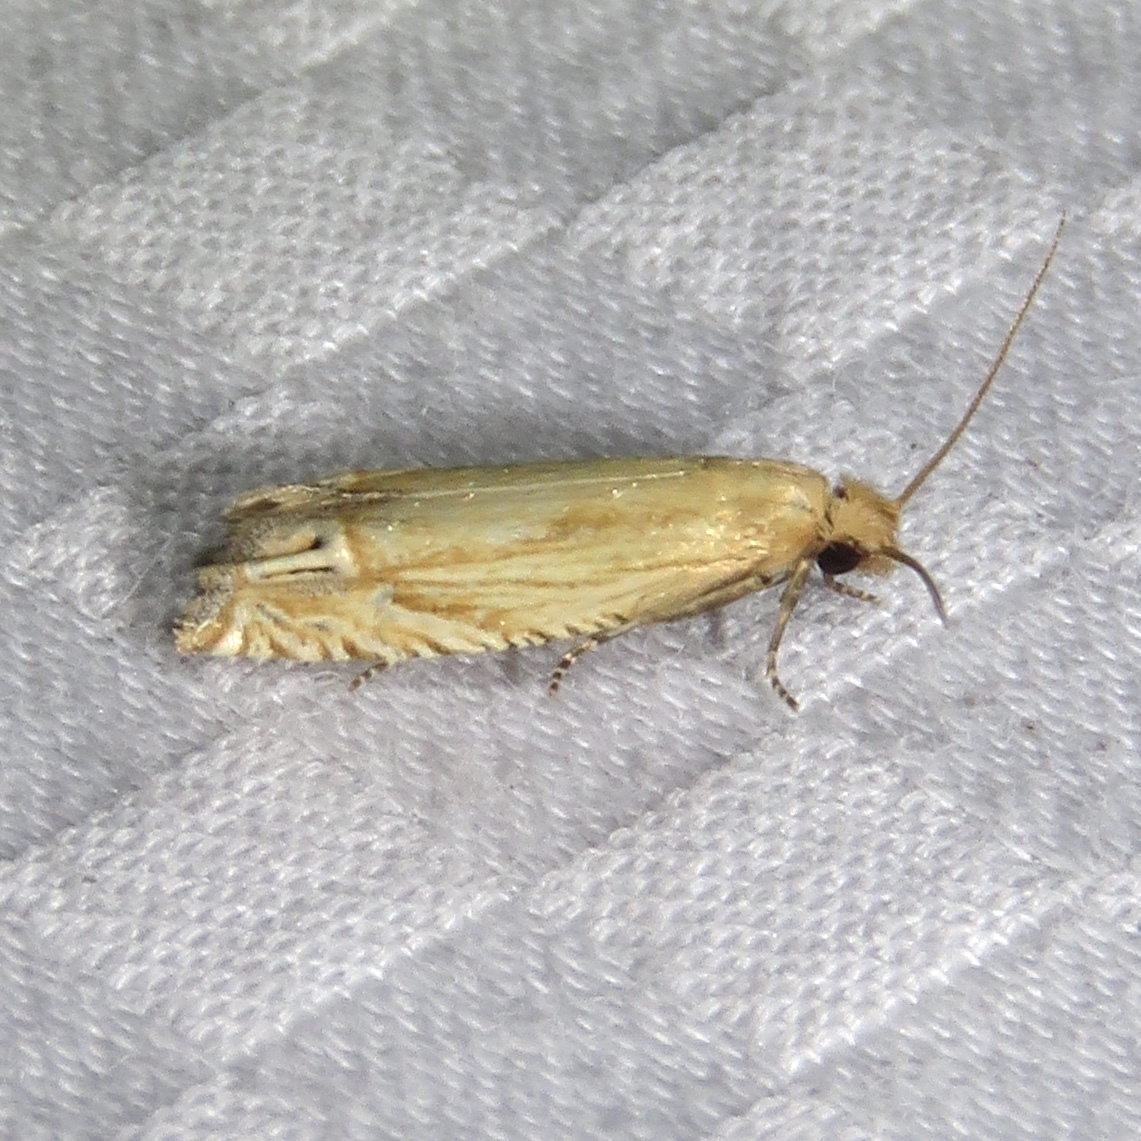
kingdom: Animalia
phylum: Arthropoda
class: Insecta
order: Lepidoptera
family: Tortricidae
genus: Pelochrista
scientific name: Pelochrista cataclystiana
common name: Goldenrod pelochrista moth
